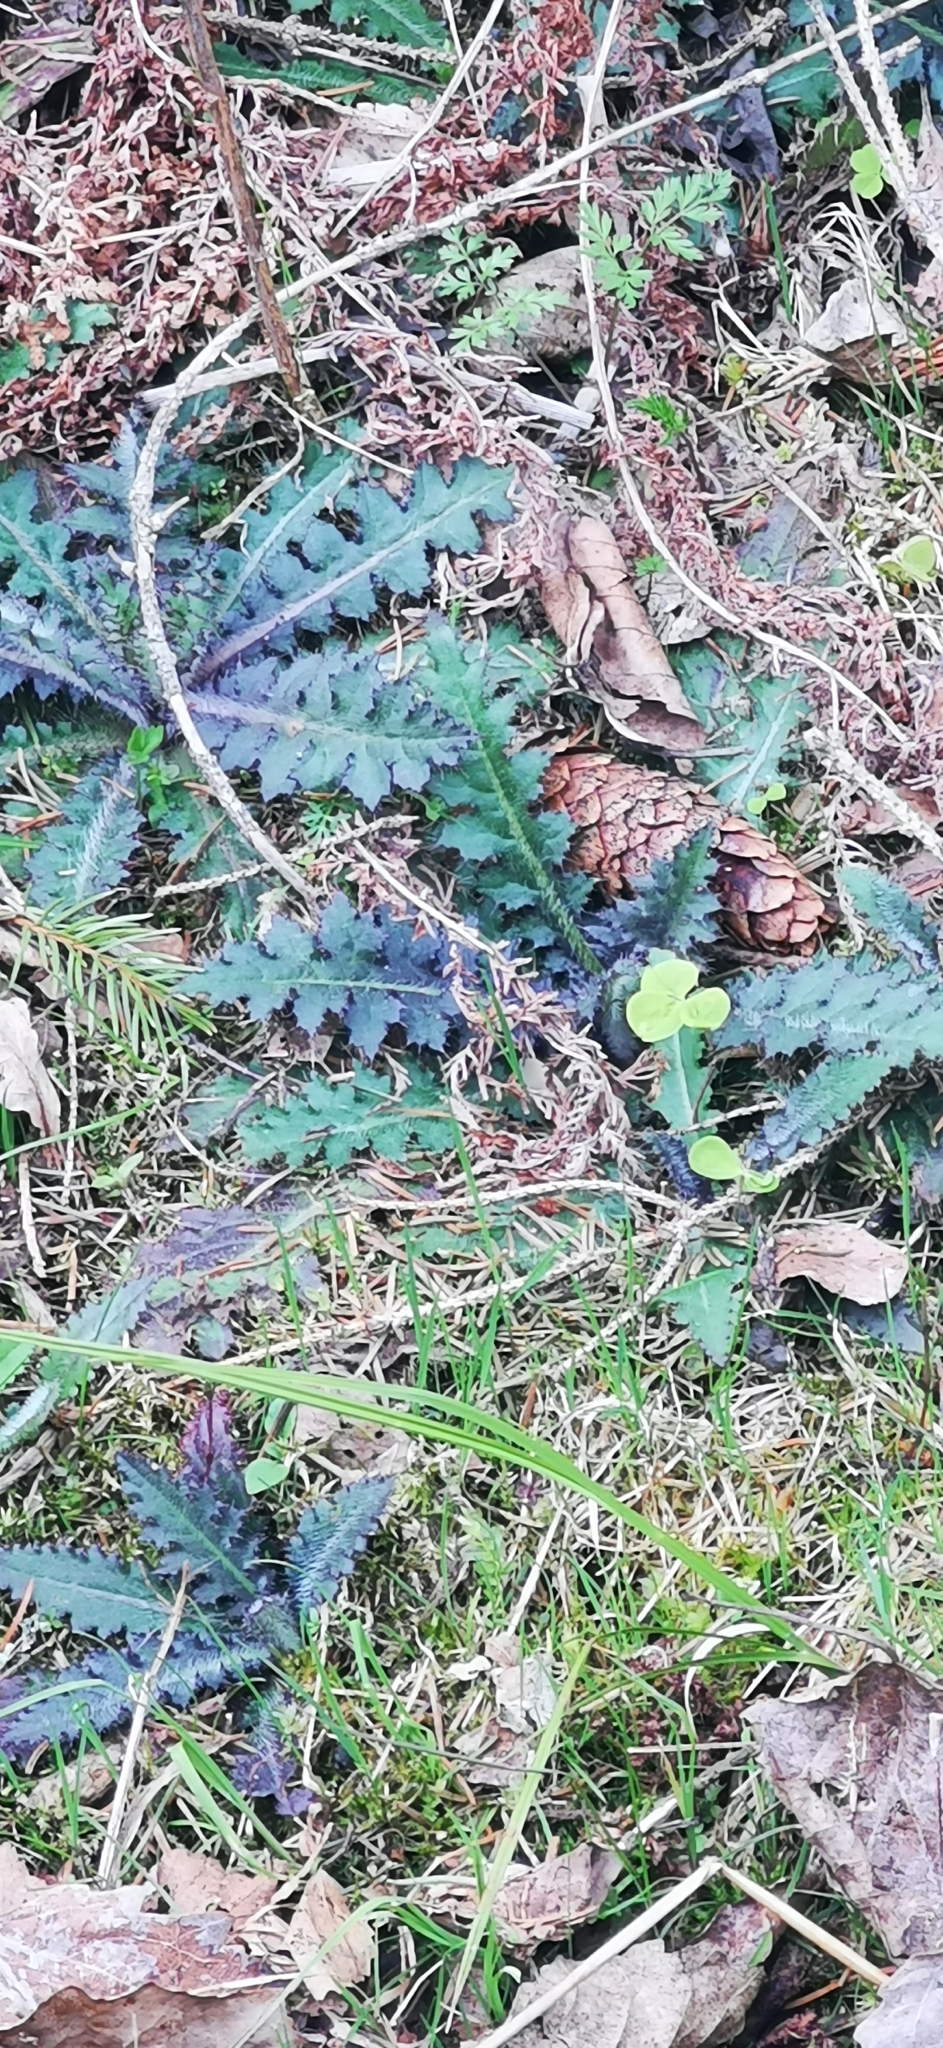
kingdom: Plantae
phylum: Tracheophyta
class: Magnoliopsida
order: Asterales
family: Asteraceae
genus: Cirsium
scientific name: Cirsium palustre
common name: Marsh thistle
